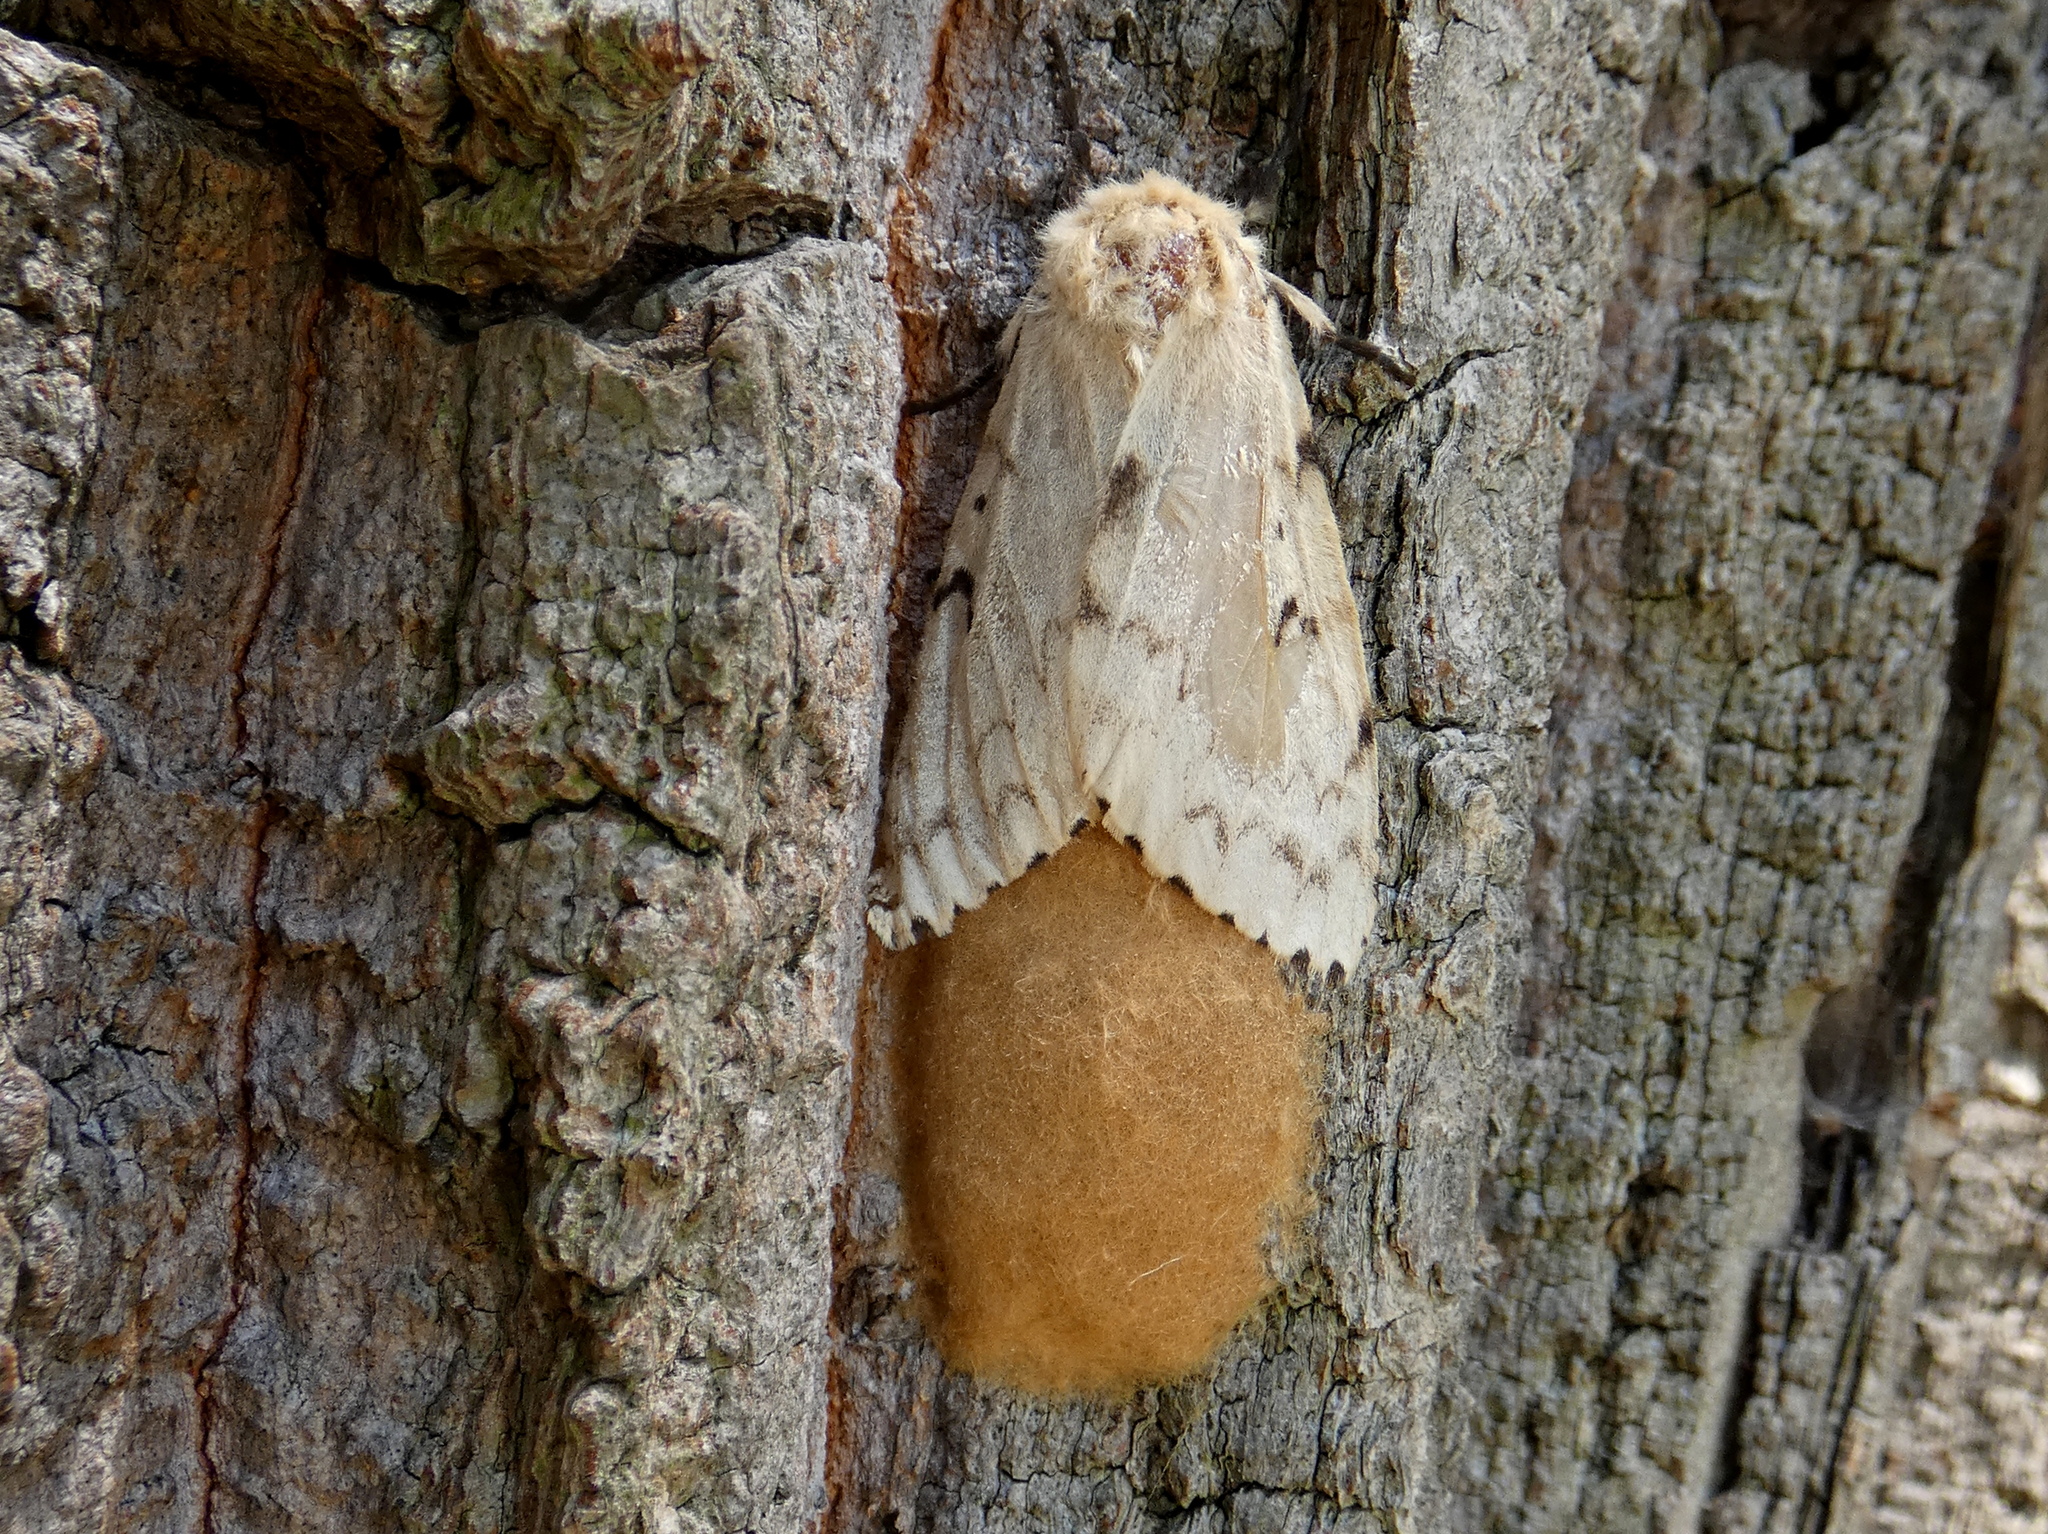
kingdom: Animalia
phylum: Arthropoda
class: Insecta
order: Lepidoptera
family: Erebidae
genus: Lymantria
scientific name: Lymantria dispar
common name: Gypsy moth
